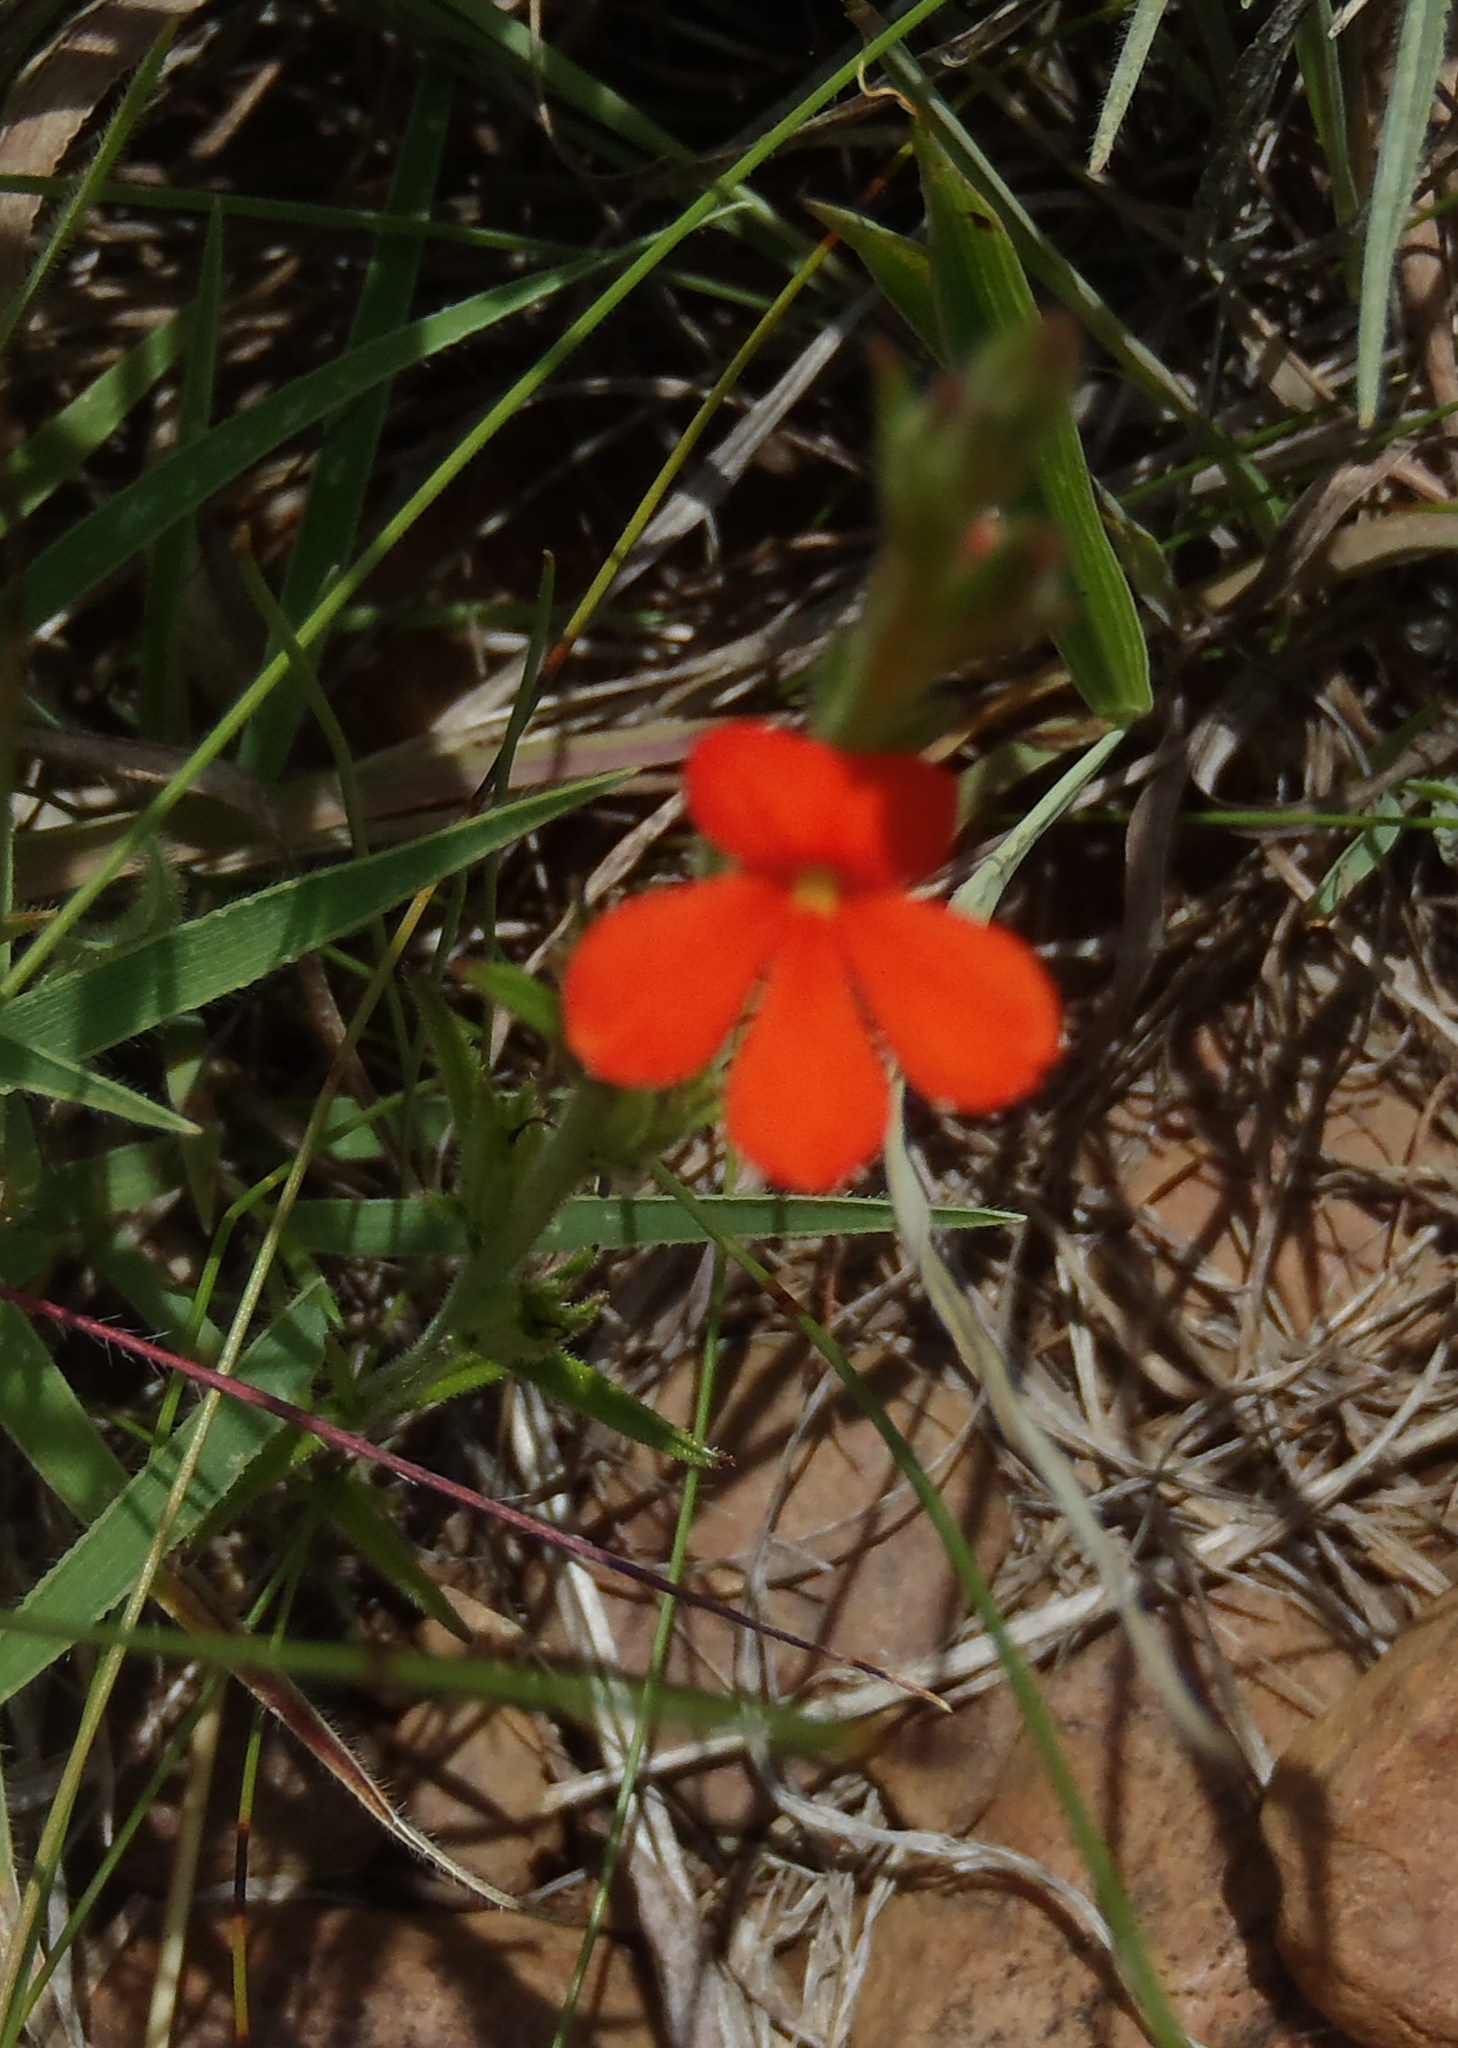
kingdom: Plantae
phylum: Tracheophyta
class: Magnoliopsida
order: Lamiales
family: Orobanchaceae
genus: Striga
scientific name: Striga elegans
